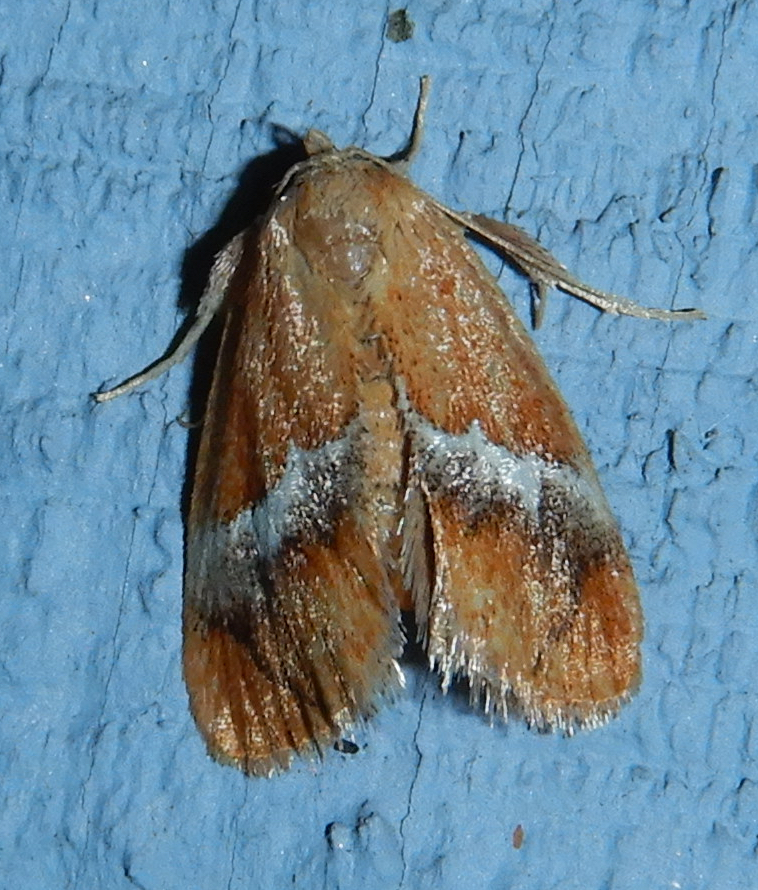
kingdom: Animalia
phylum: Arthropoda
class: Insecta
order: Lepidoptera
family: Limacodidae
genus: Lithacodes
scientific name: Lithacodes fasciola
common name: Yellow-shouldered slug moth
